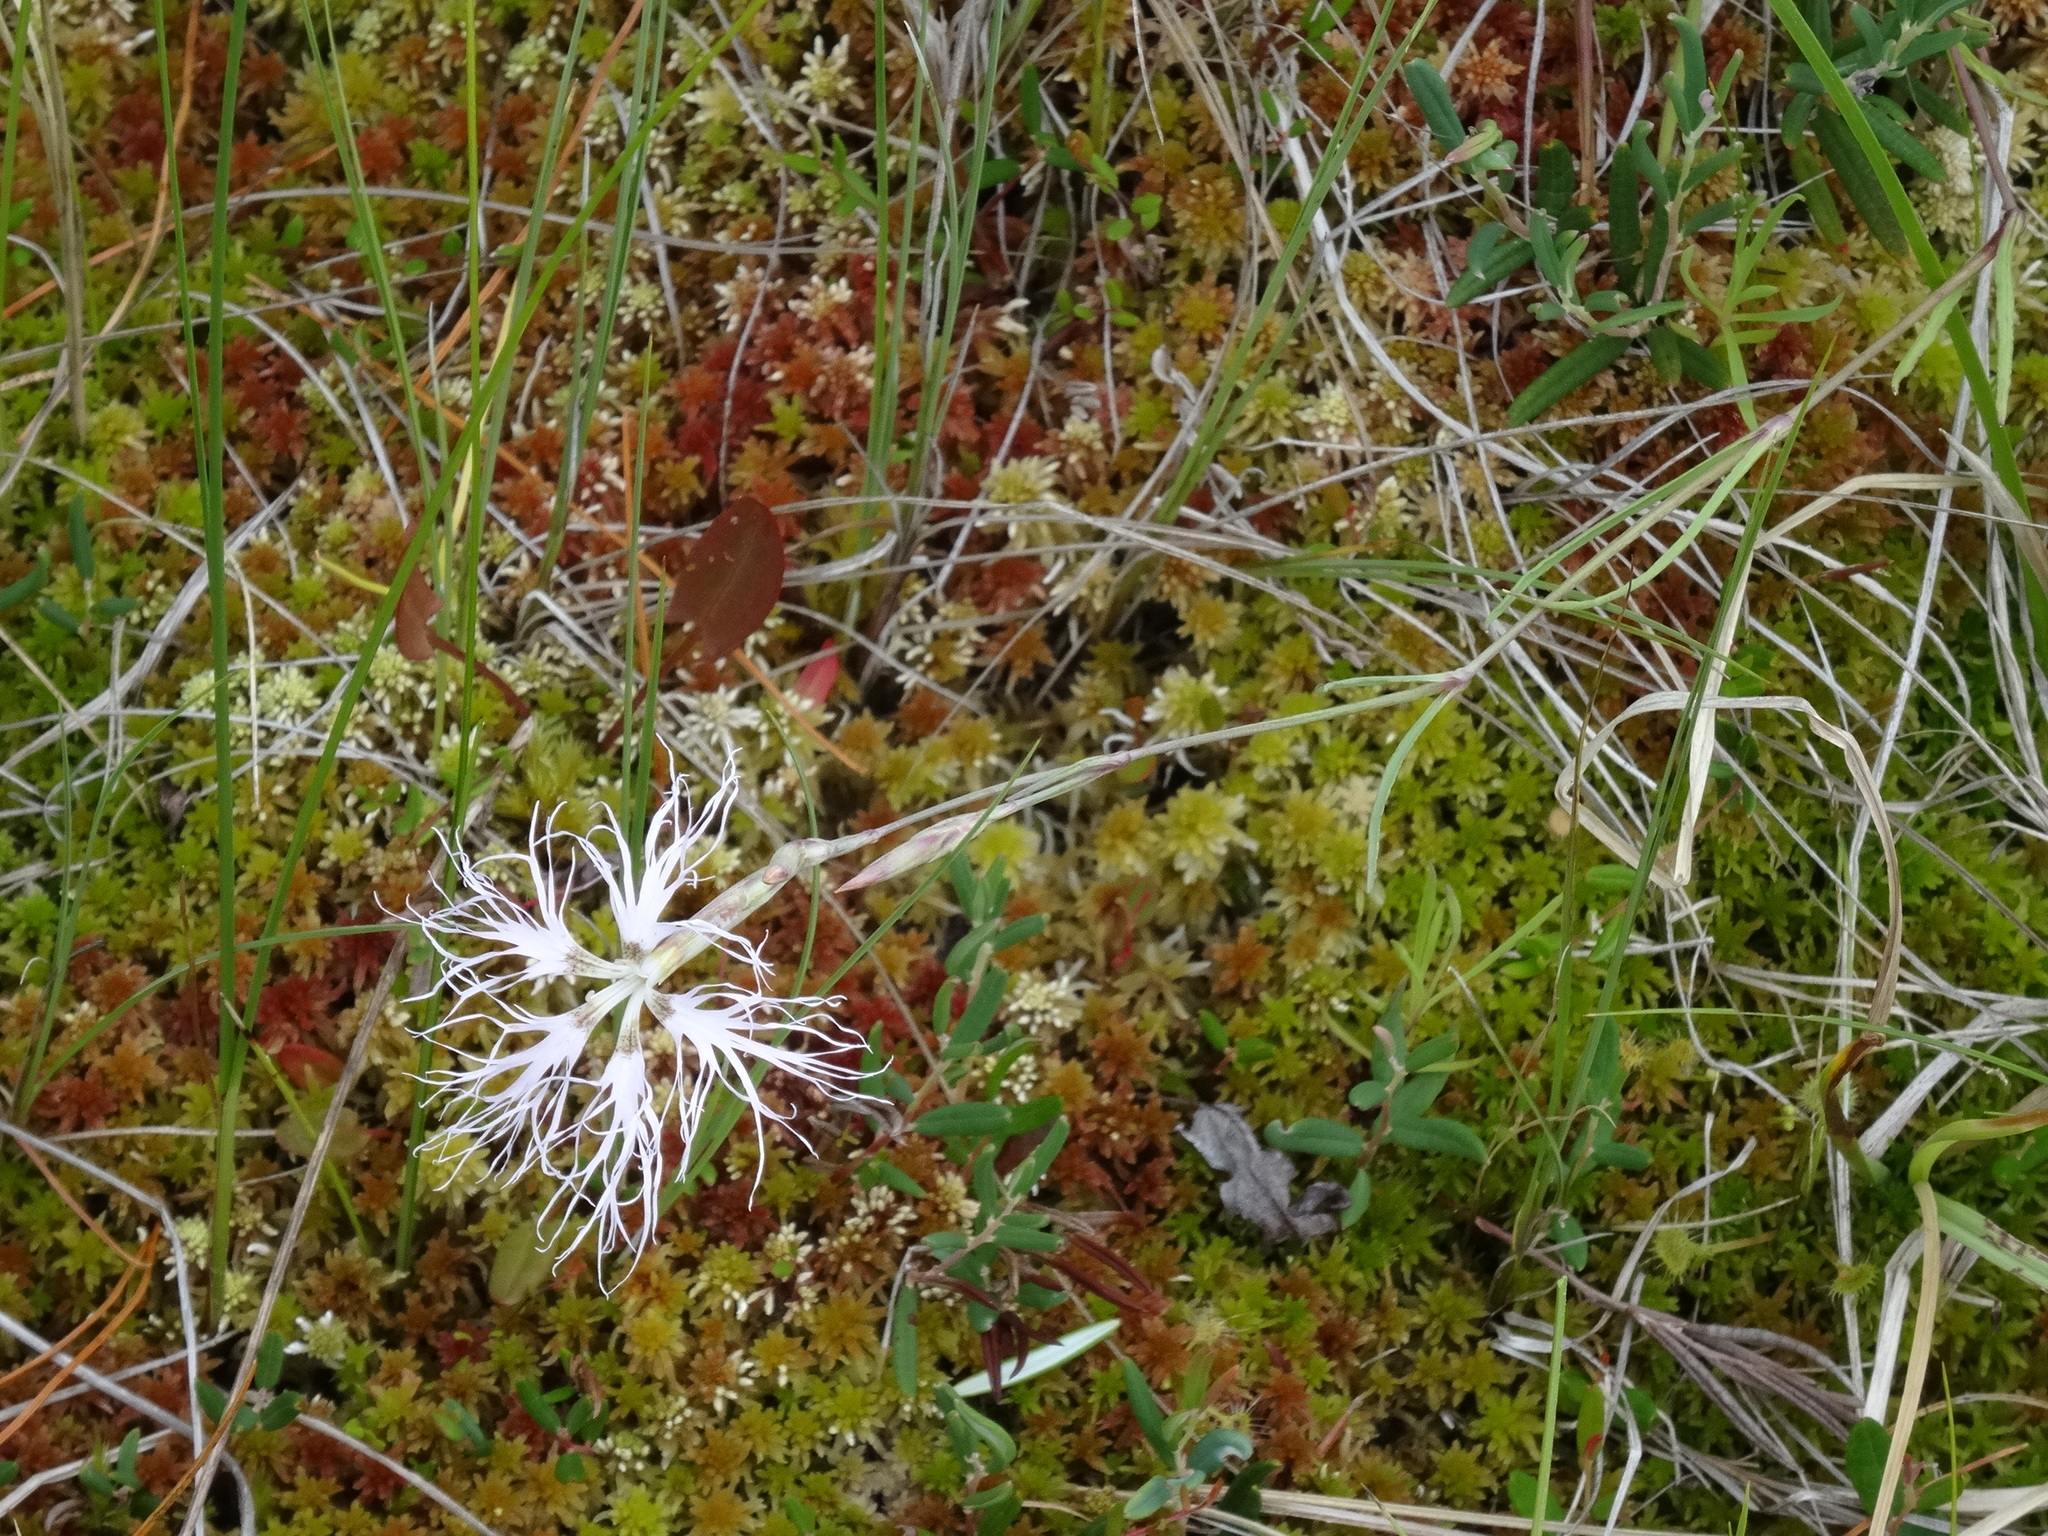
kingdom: Plantae
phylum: Tracheophyta
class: Magnoliopsida
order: Caryophyllales
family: Caryophyllaceae
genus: Dianthus
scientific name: Dianthus superbus
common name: Fringed pink
